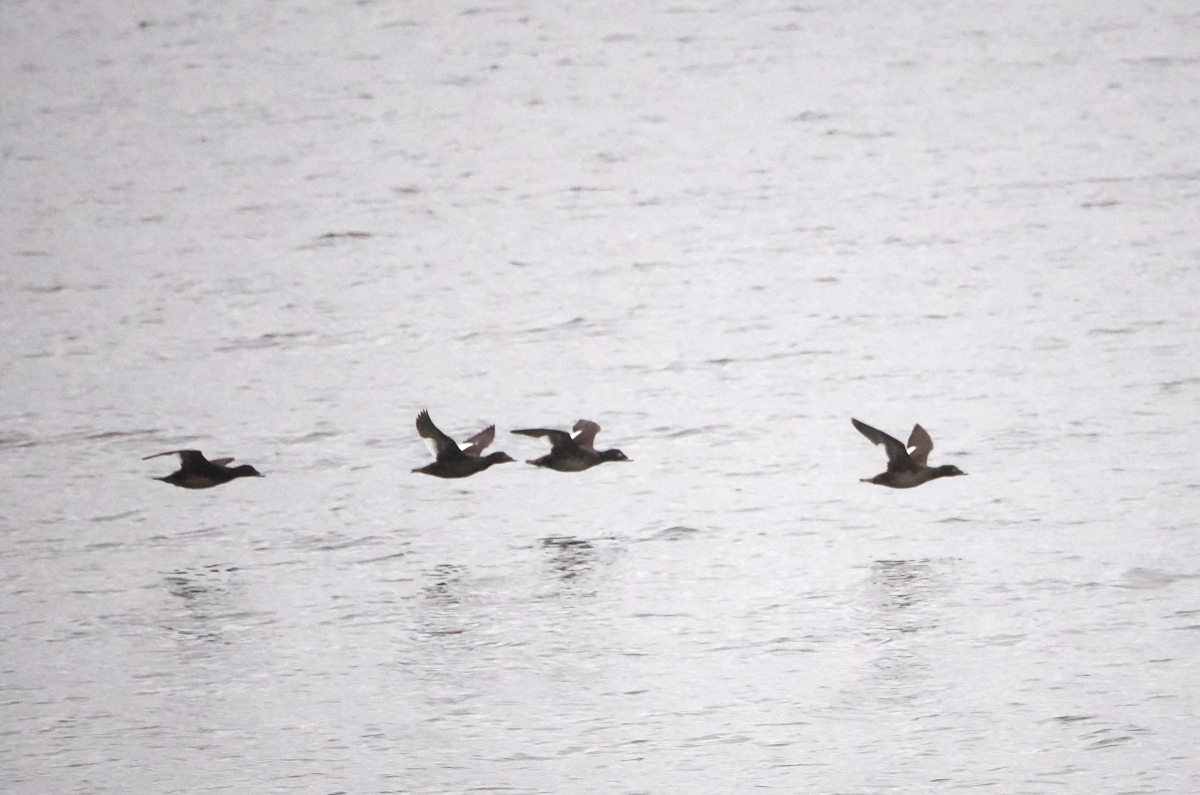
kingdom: Animalia
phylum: Chordata
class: Aves
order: Anseriformes
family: Anatidae
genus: Melanitta
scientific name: Melanitta deglandi
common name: White-winged scoter
